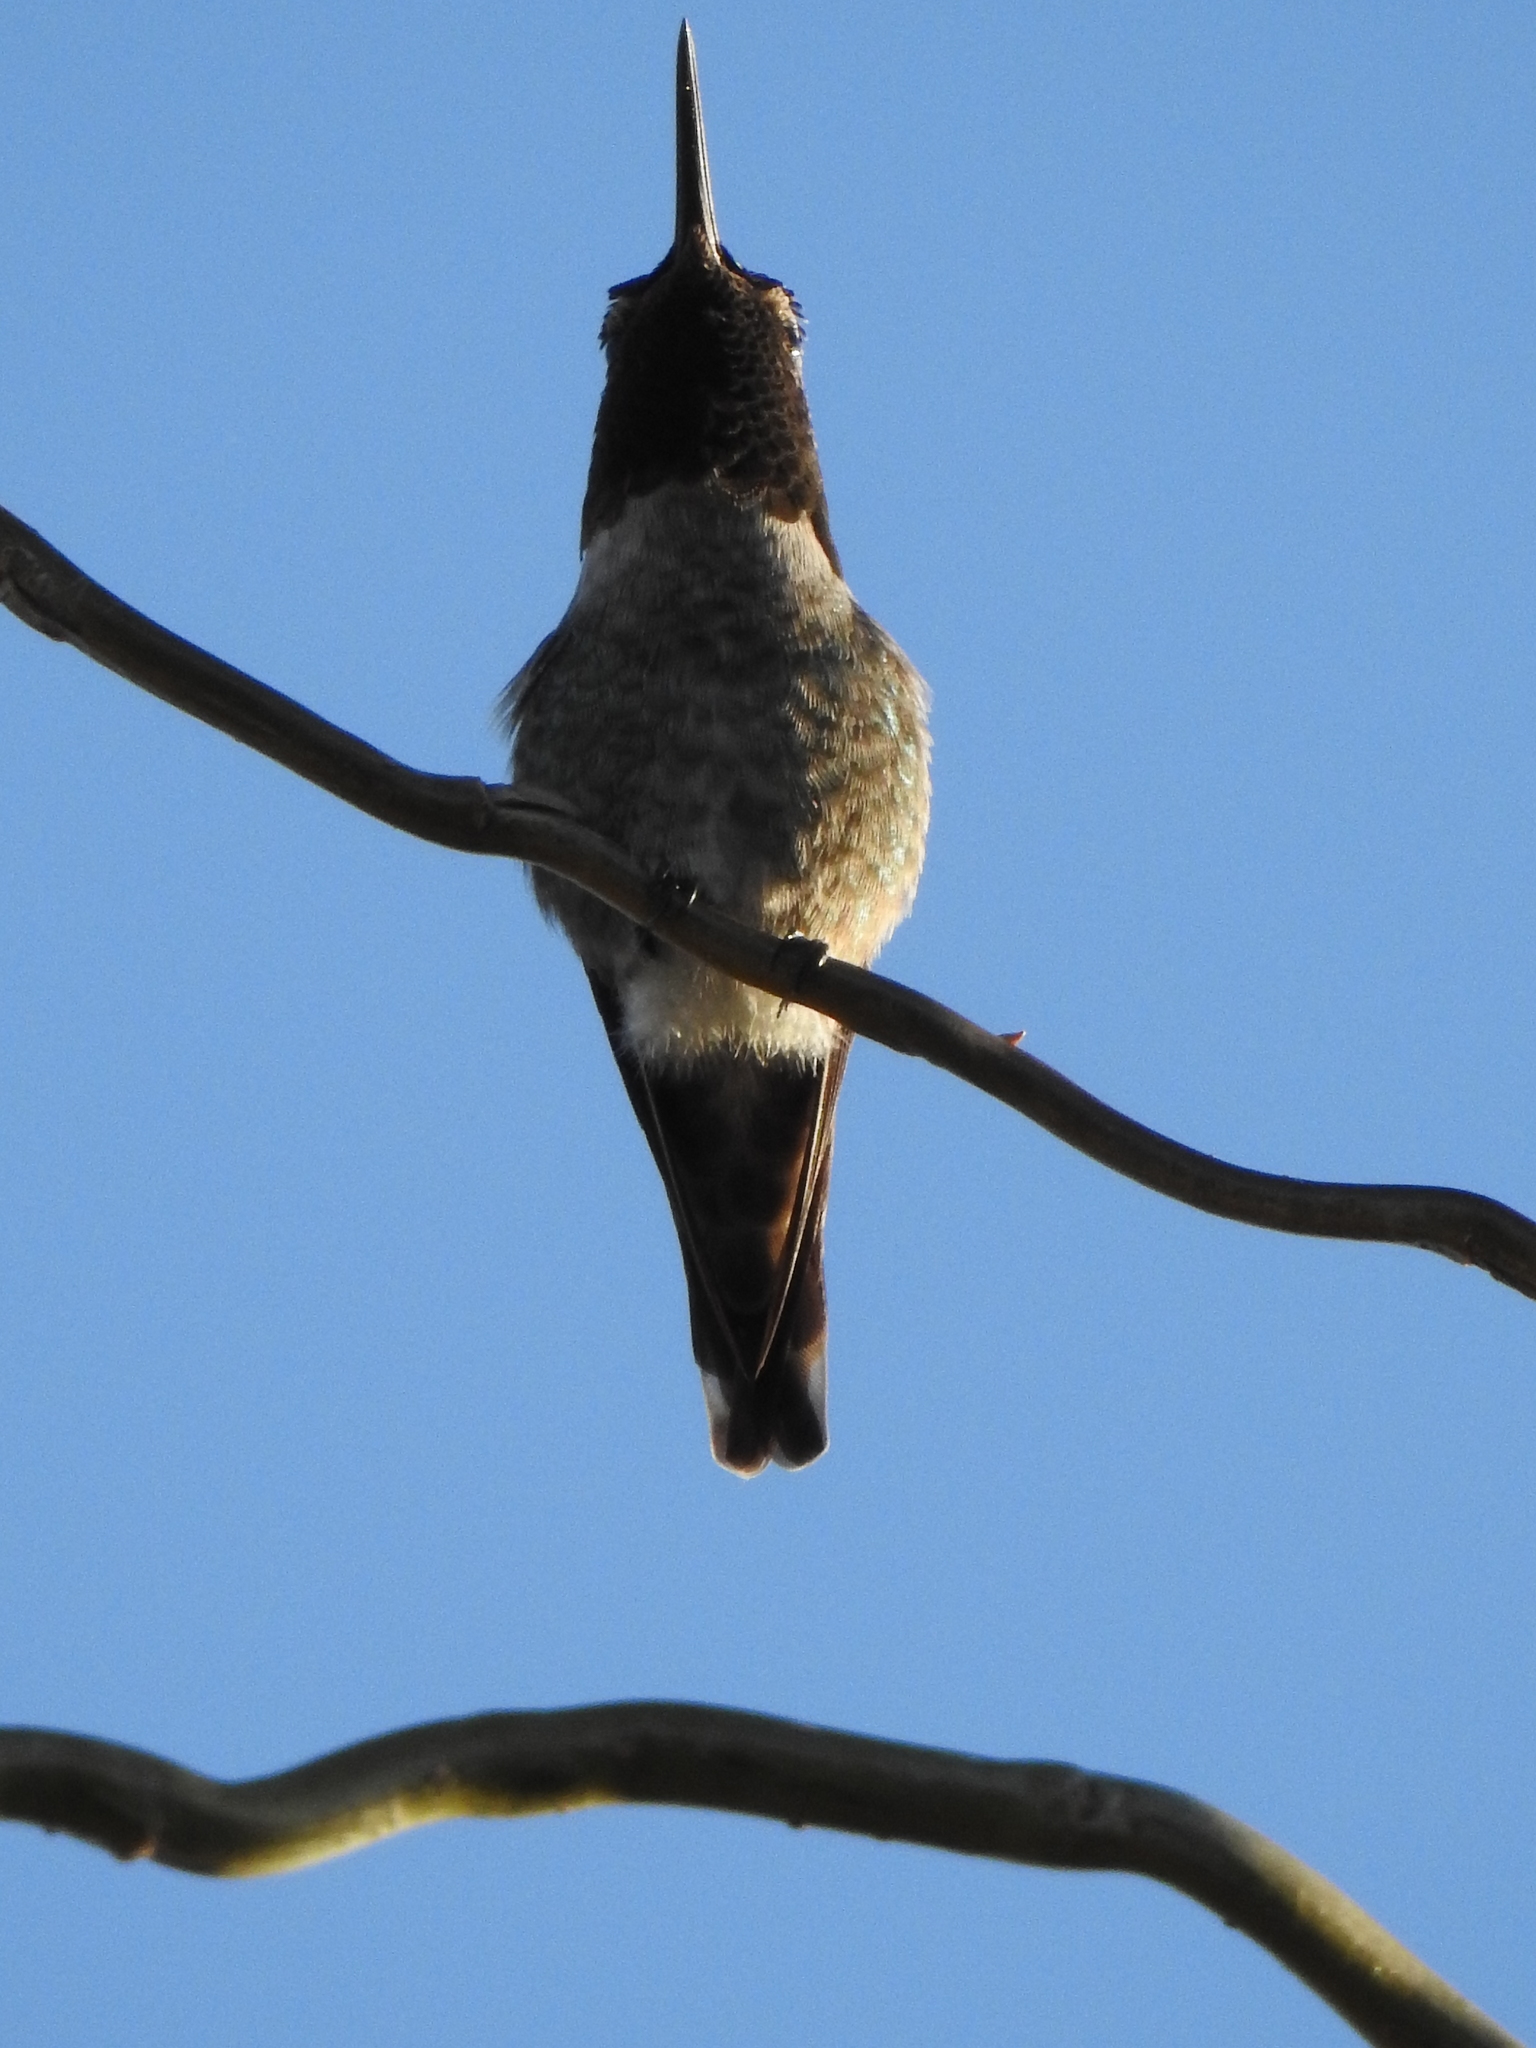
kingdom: Animalia
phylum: Chordata
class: Aves
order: Apodiformes
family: Trochilidae
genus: Calypte
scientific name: Calypte anna
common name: Anna's hummingbird
